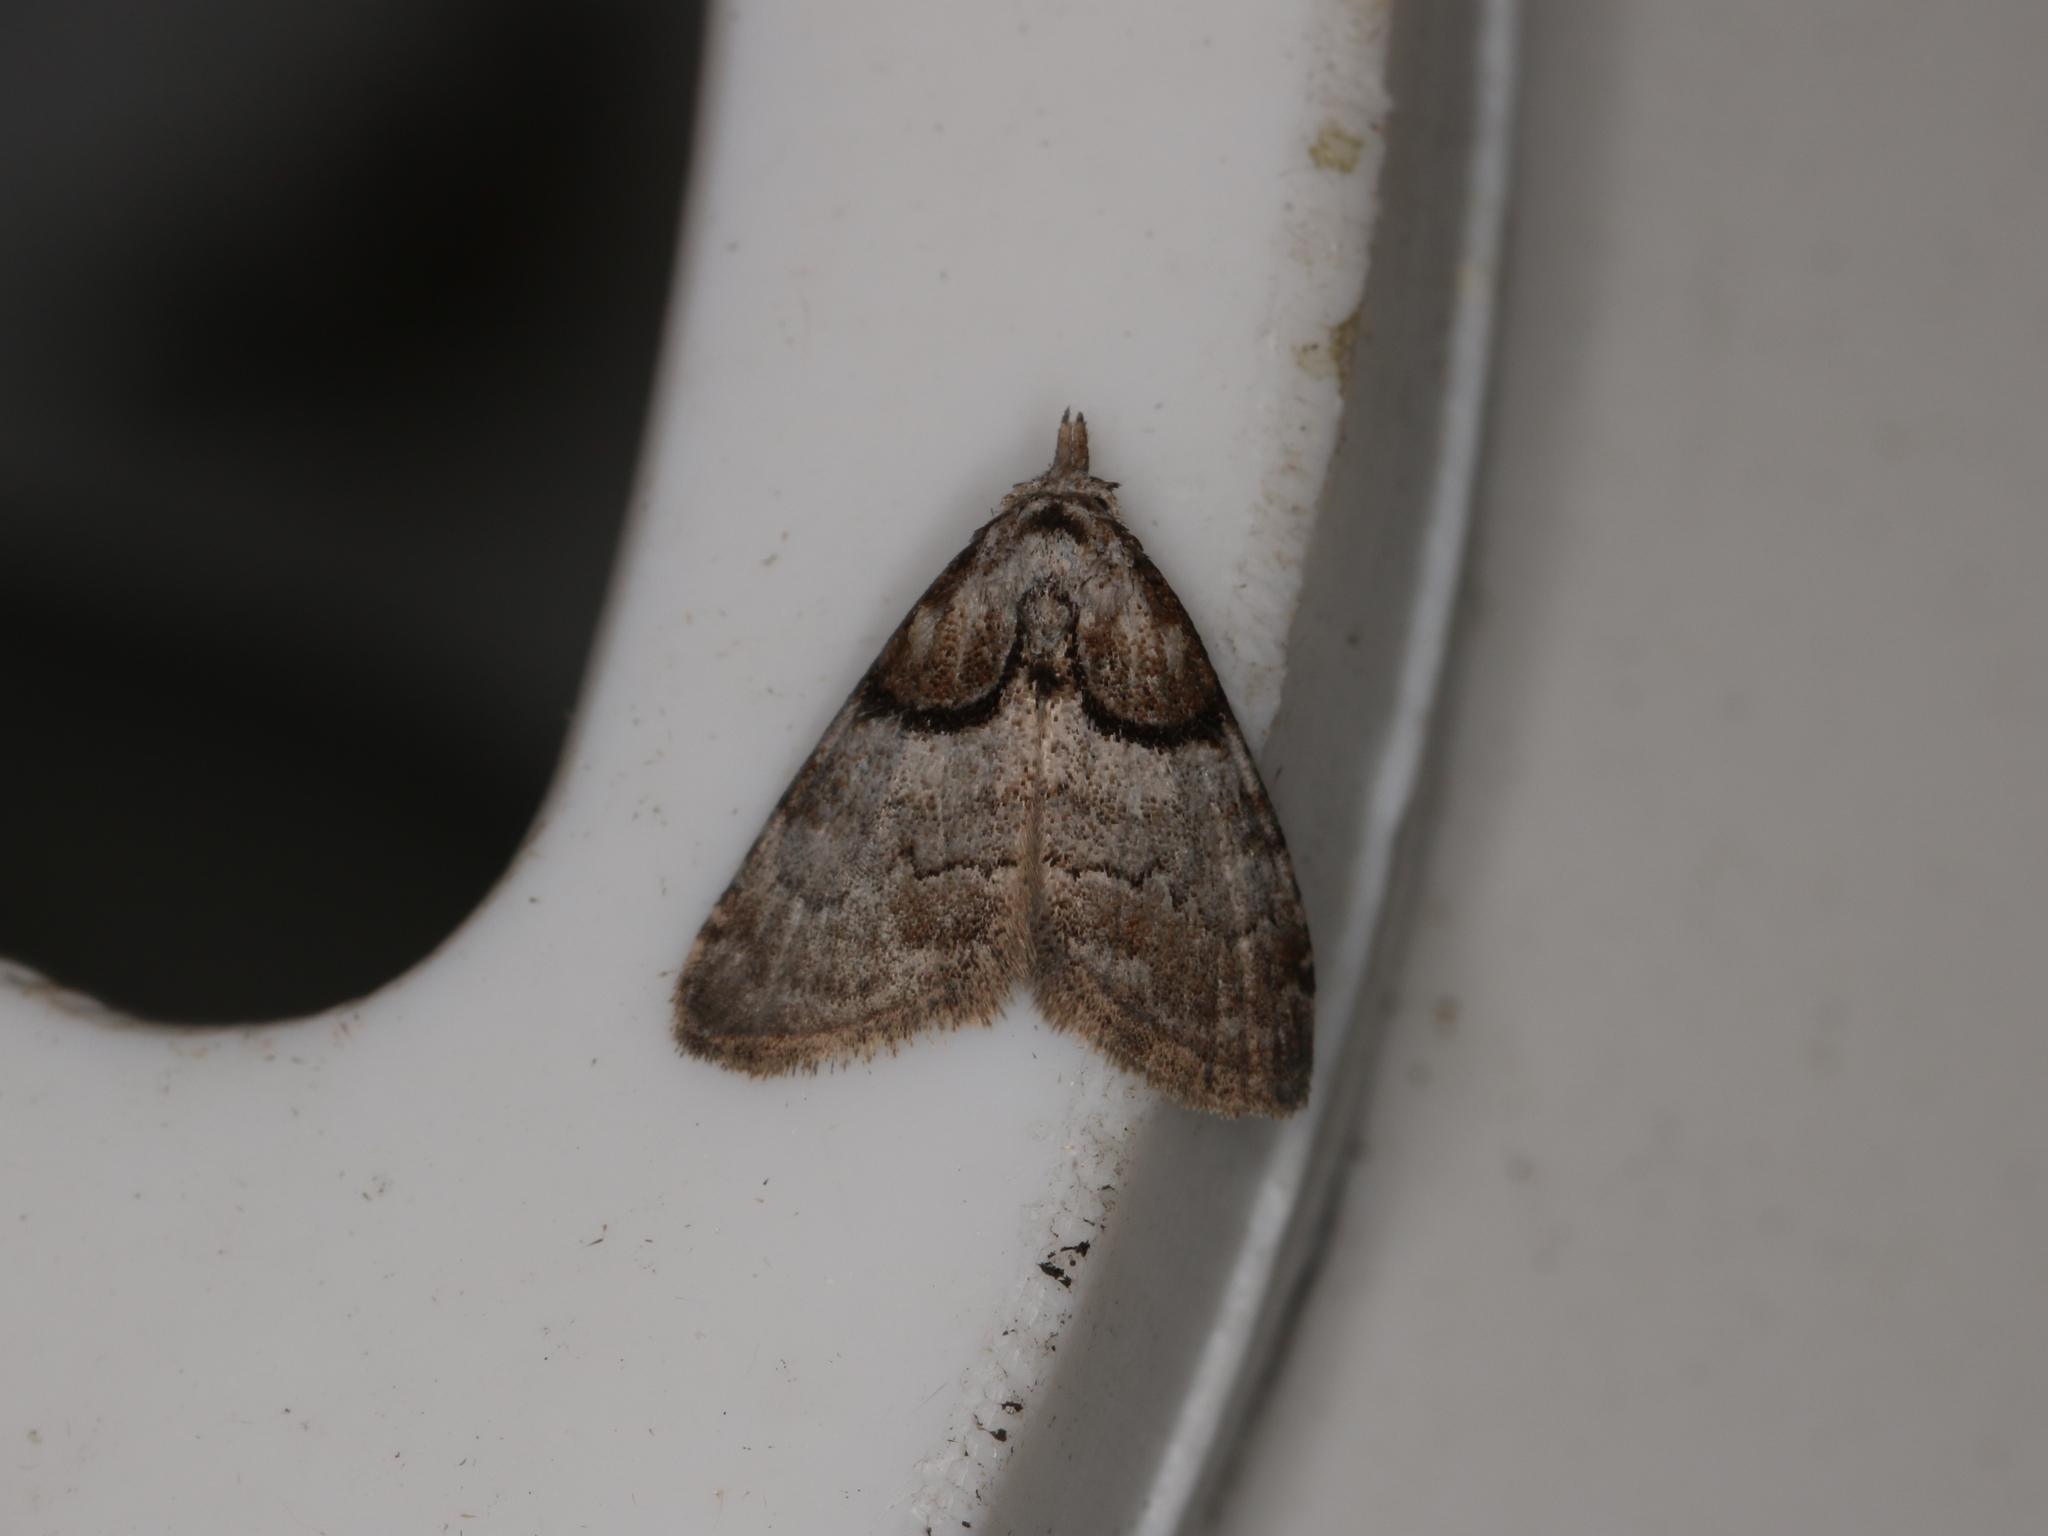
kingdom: Animalia
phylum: Arthropoda
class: Insecta
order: Lepidoptera
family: Nolidae
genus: Nola
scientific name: Nola cucullatella
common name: Short-cloaked moth
